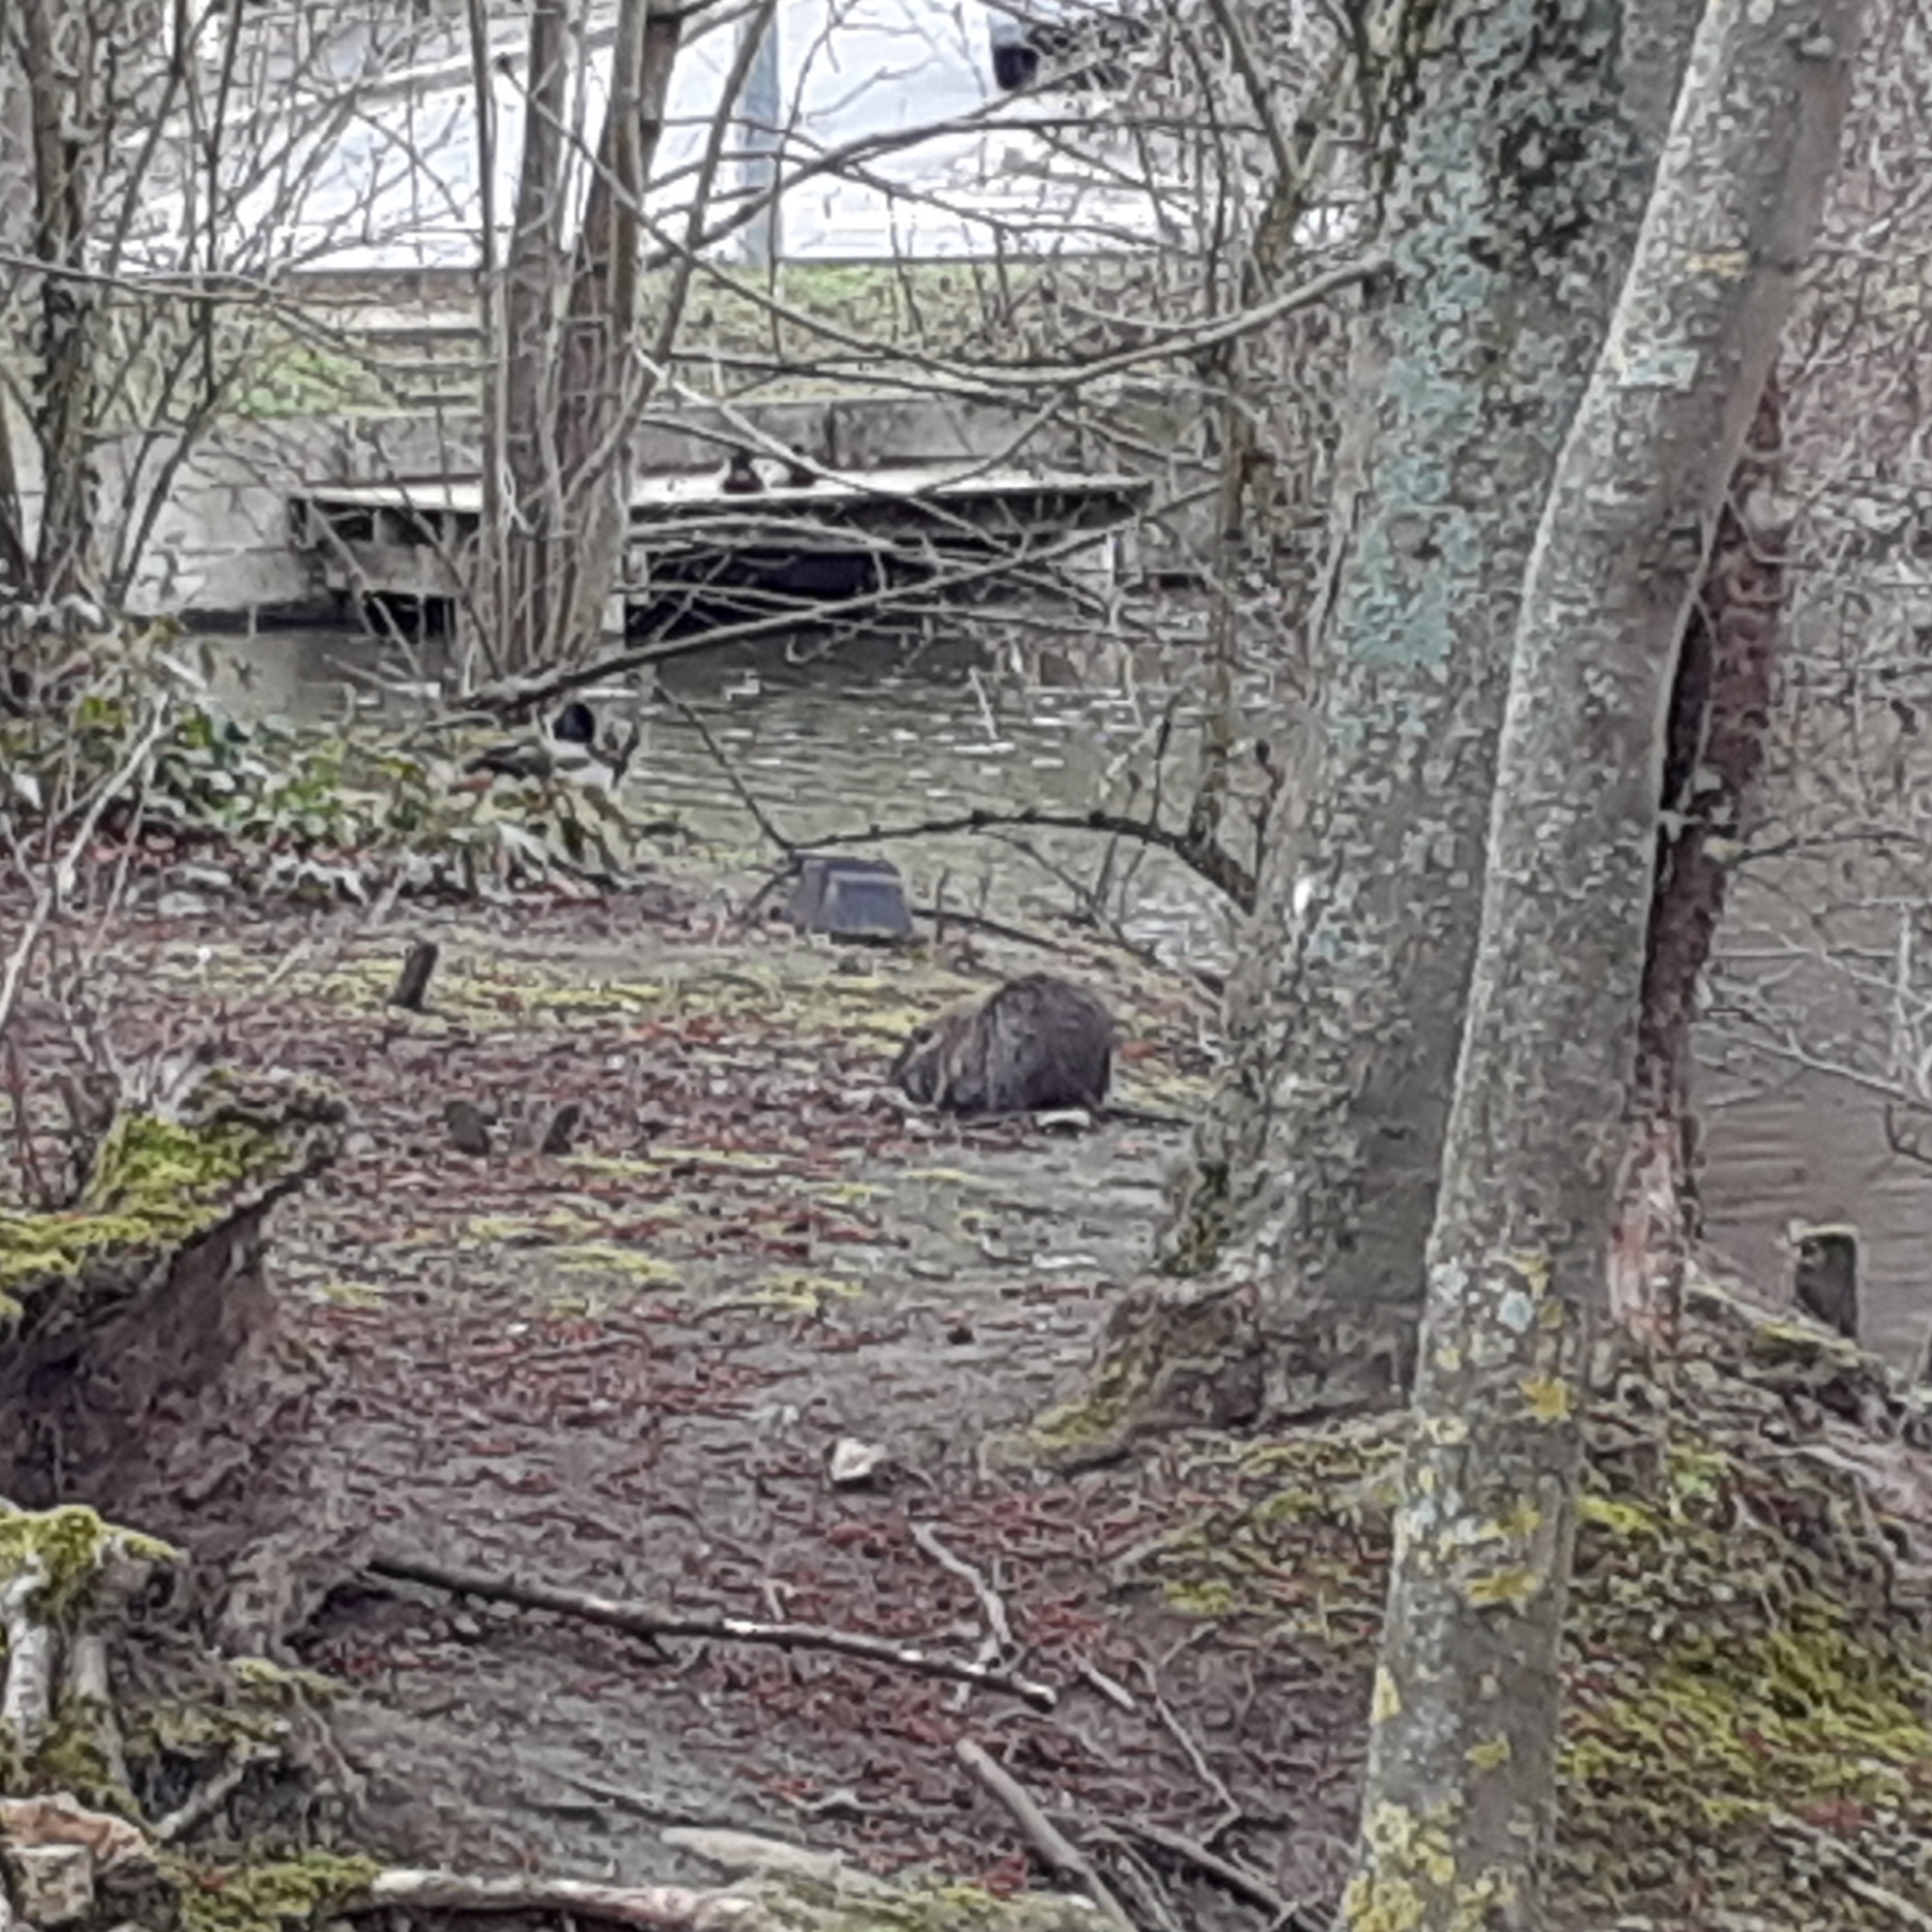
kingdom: Animalia
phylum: Chordata
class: Mammalia
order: Rodentia
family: Myocastoridae
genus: Myocastor
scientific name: Myocastor coypus
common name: Coypu
